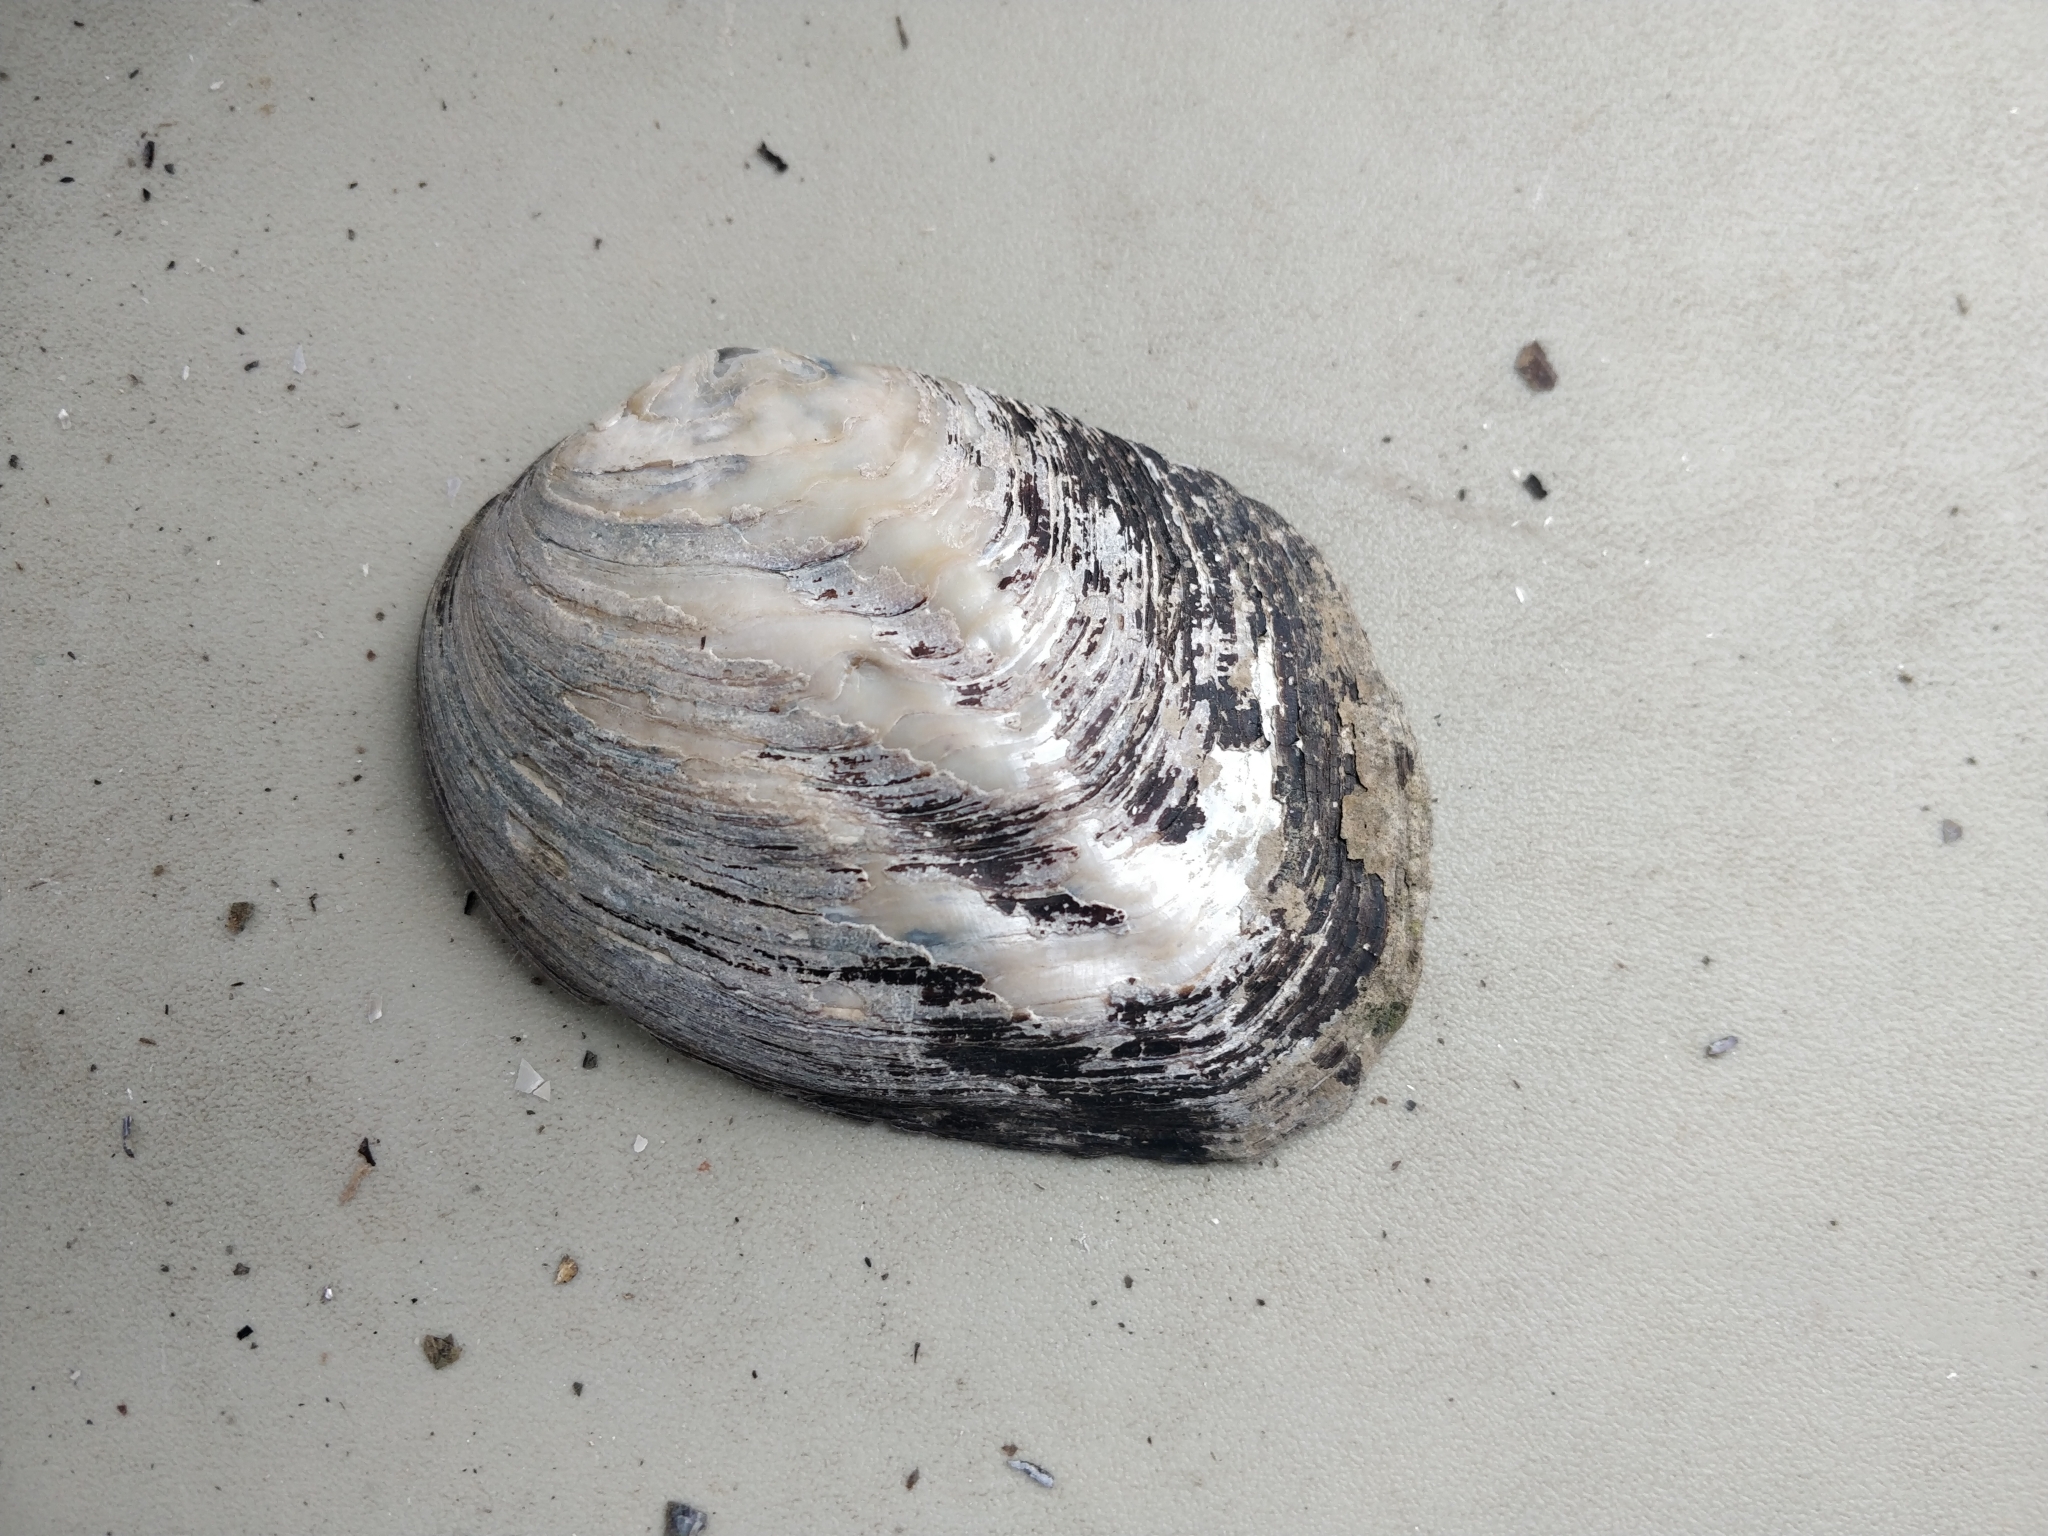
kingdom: Animalia
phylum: Mollusca
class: Bivalvia
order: Unionida
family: Unionidae
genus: Amblema
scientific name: Amblema plicata
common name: Threeridge
